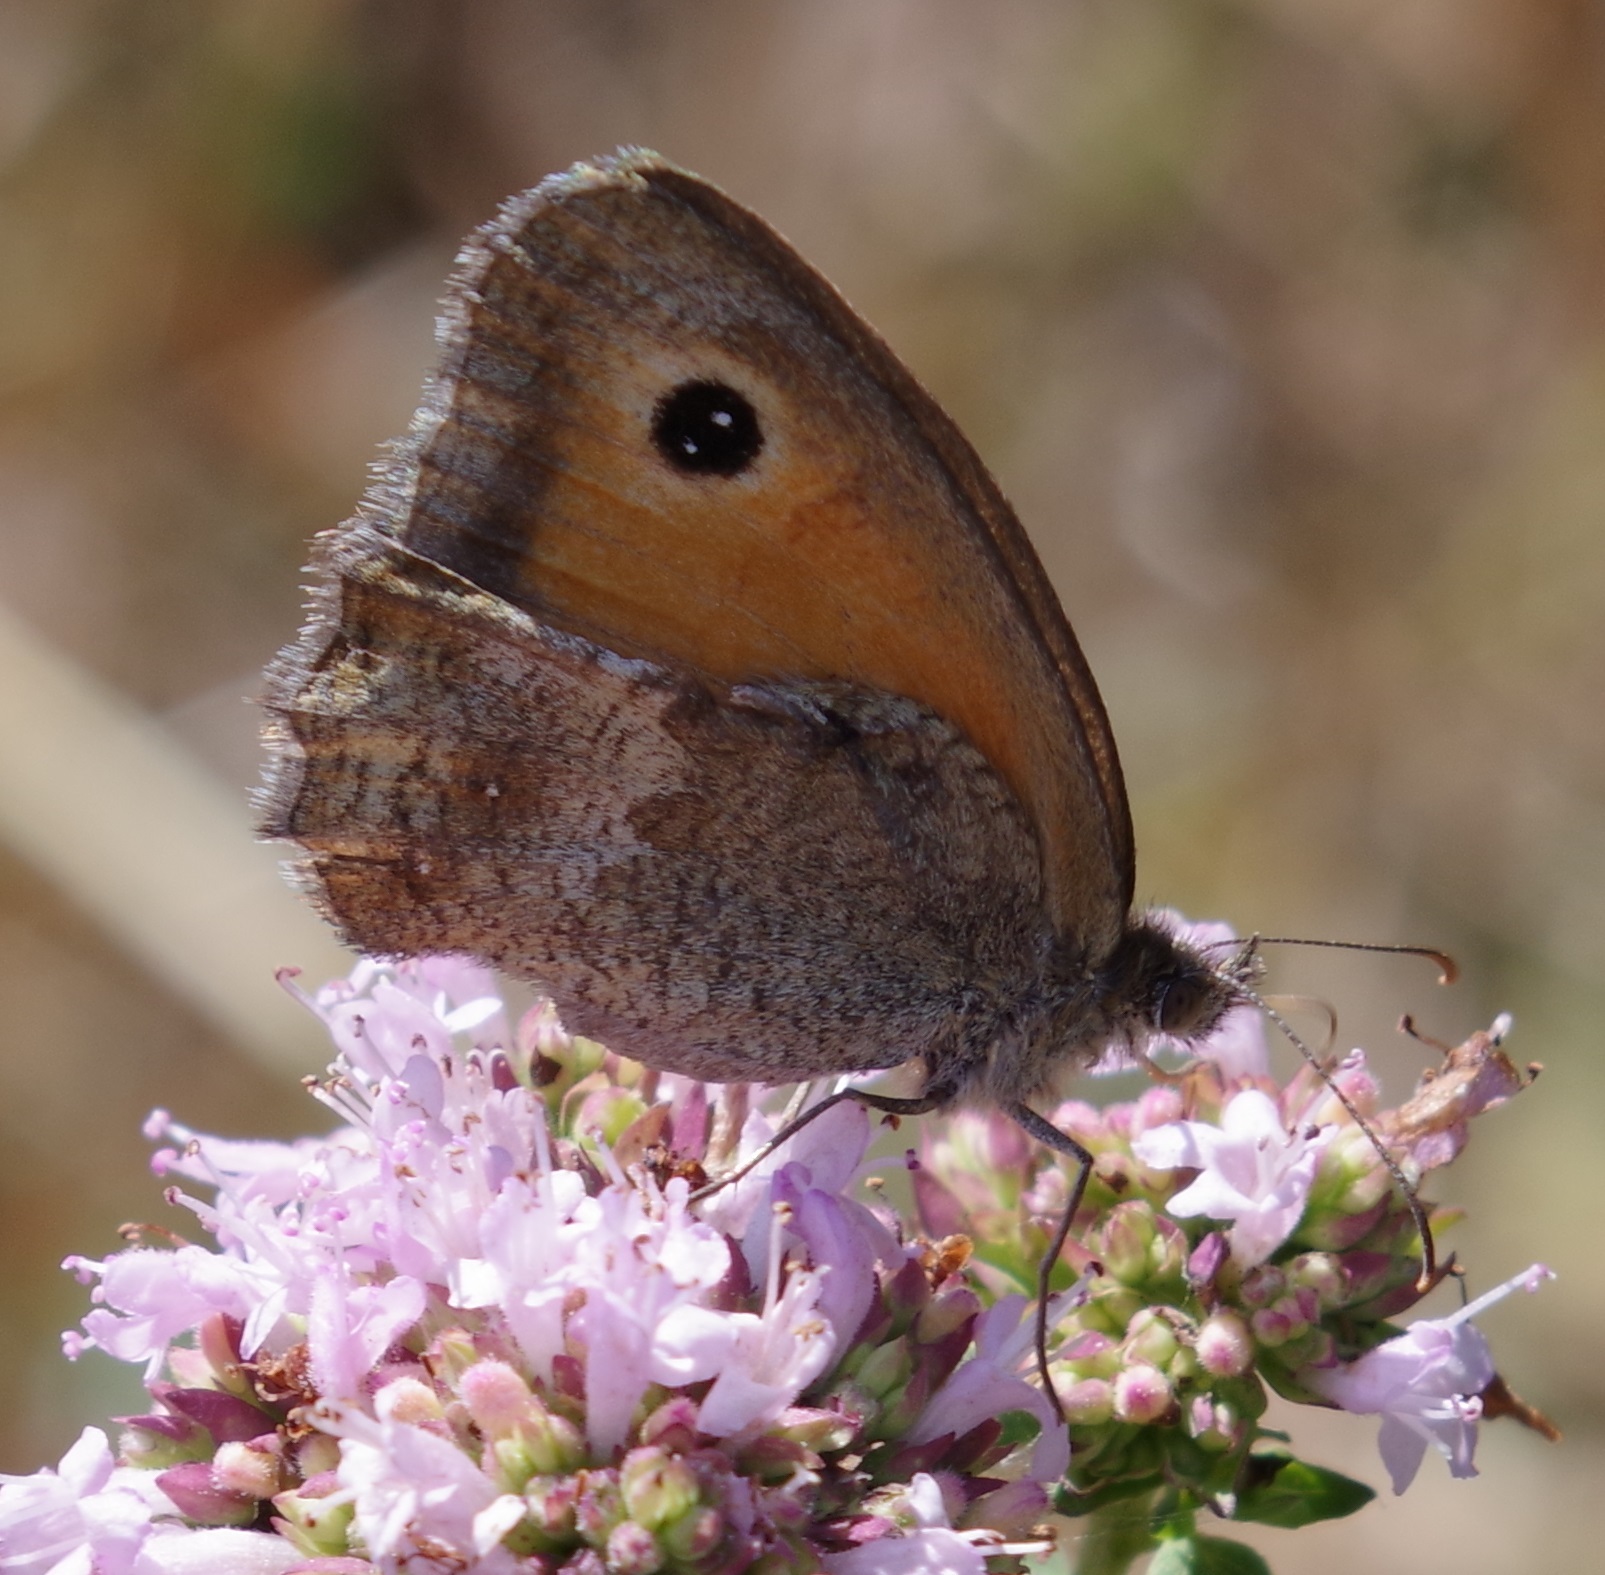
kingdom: Animalia
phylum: Arthropoda
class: Insecta
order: Lepidoptera
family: Nymphalidae
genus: Pyronia
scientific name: Pyronia tithonus
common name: Gatekeeper
